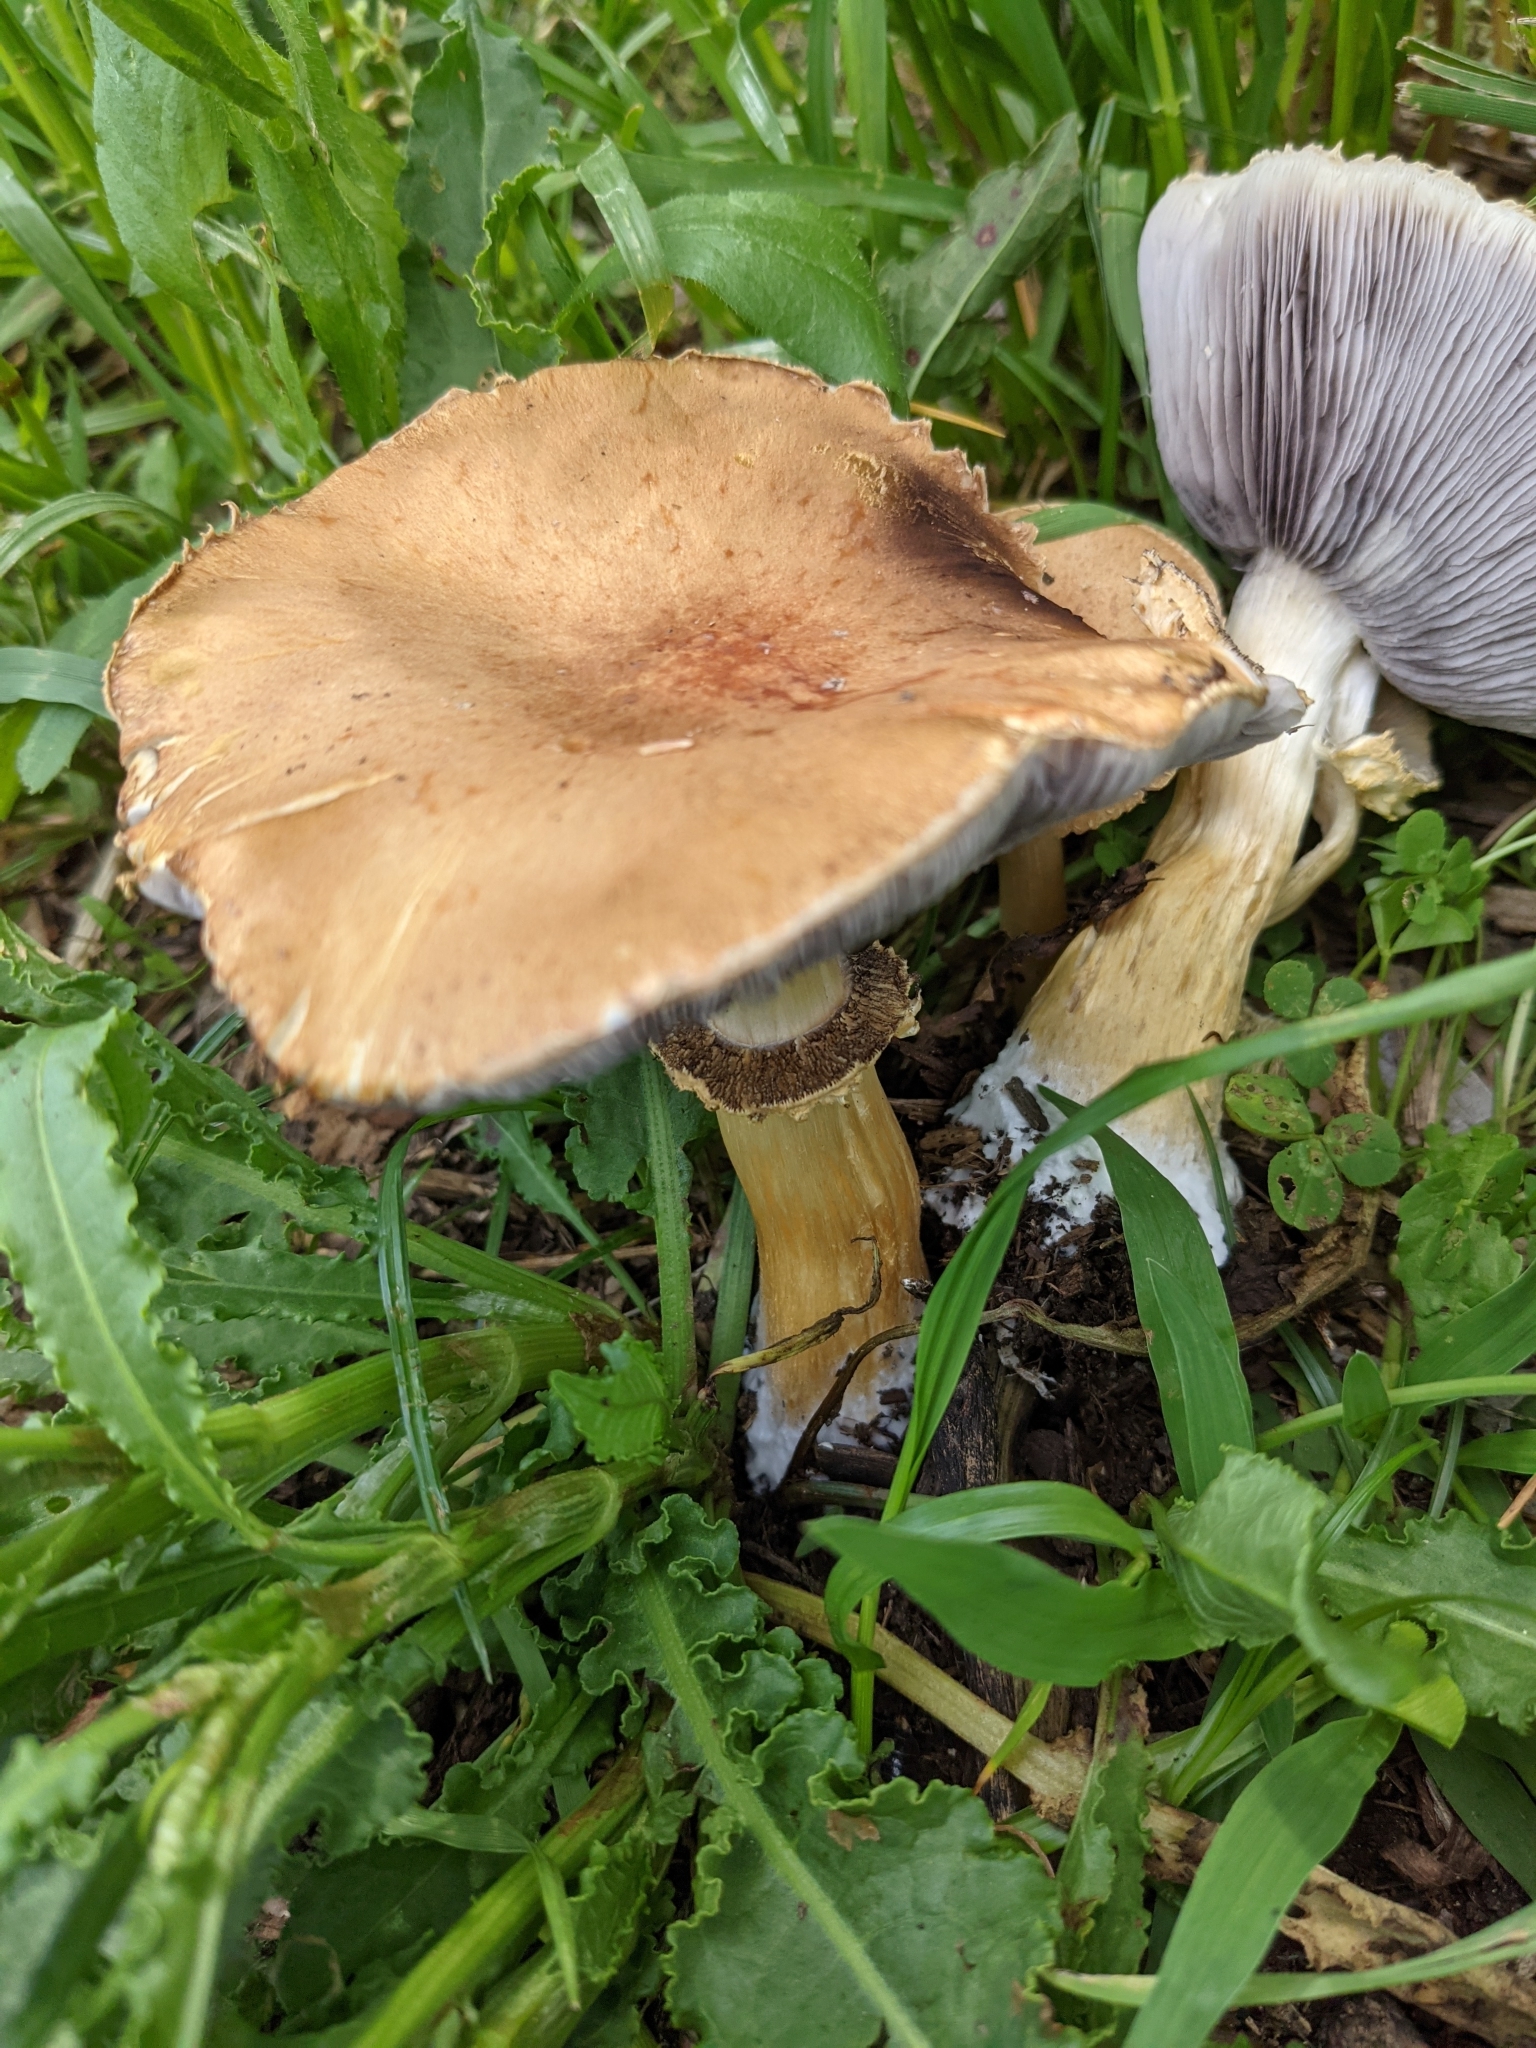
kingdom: Fungi
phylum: Basidiomycota
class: Agaricomycetes
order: Agaricales
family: Strophariaceae
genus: Stropharia
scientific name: Stropharia rugosoannulata
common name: Wine roundhead
